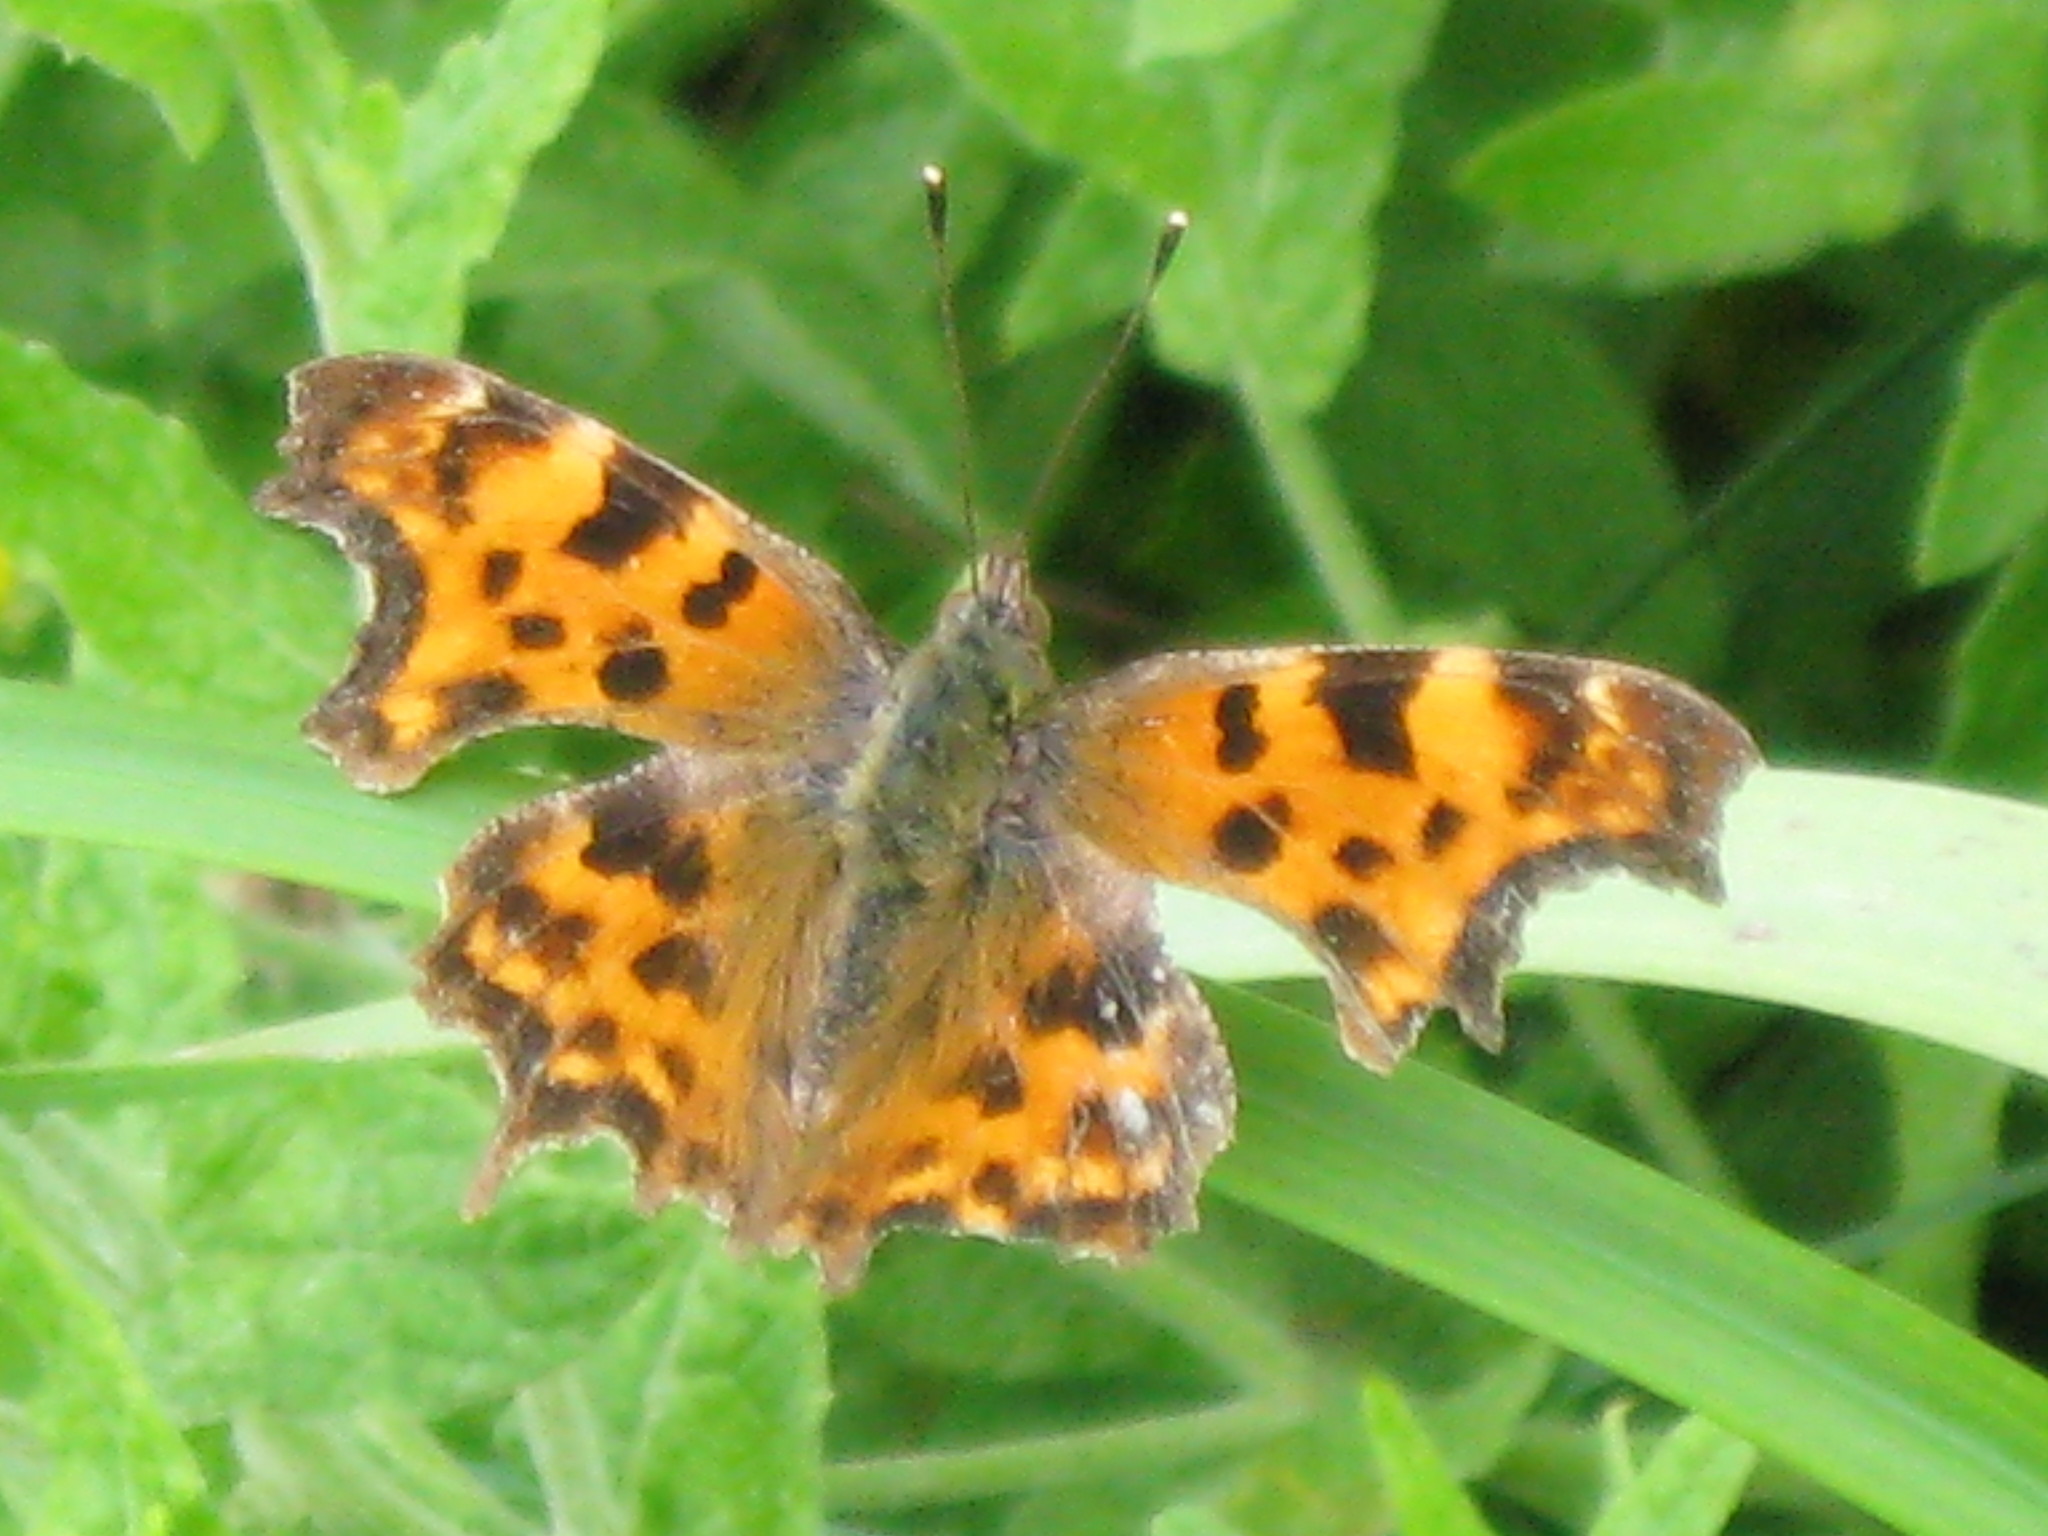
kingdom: Animalia
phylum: Arthropoda
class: Insecta
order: Lepidoptera
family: Nymphalidae
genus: Polygonia
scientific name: Polygonia c-album
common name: Comma
